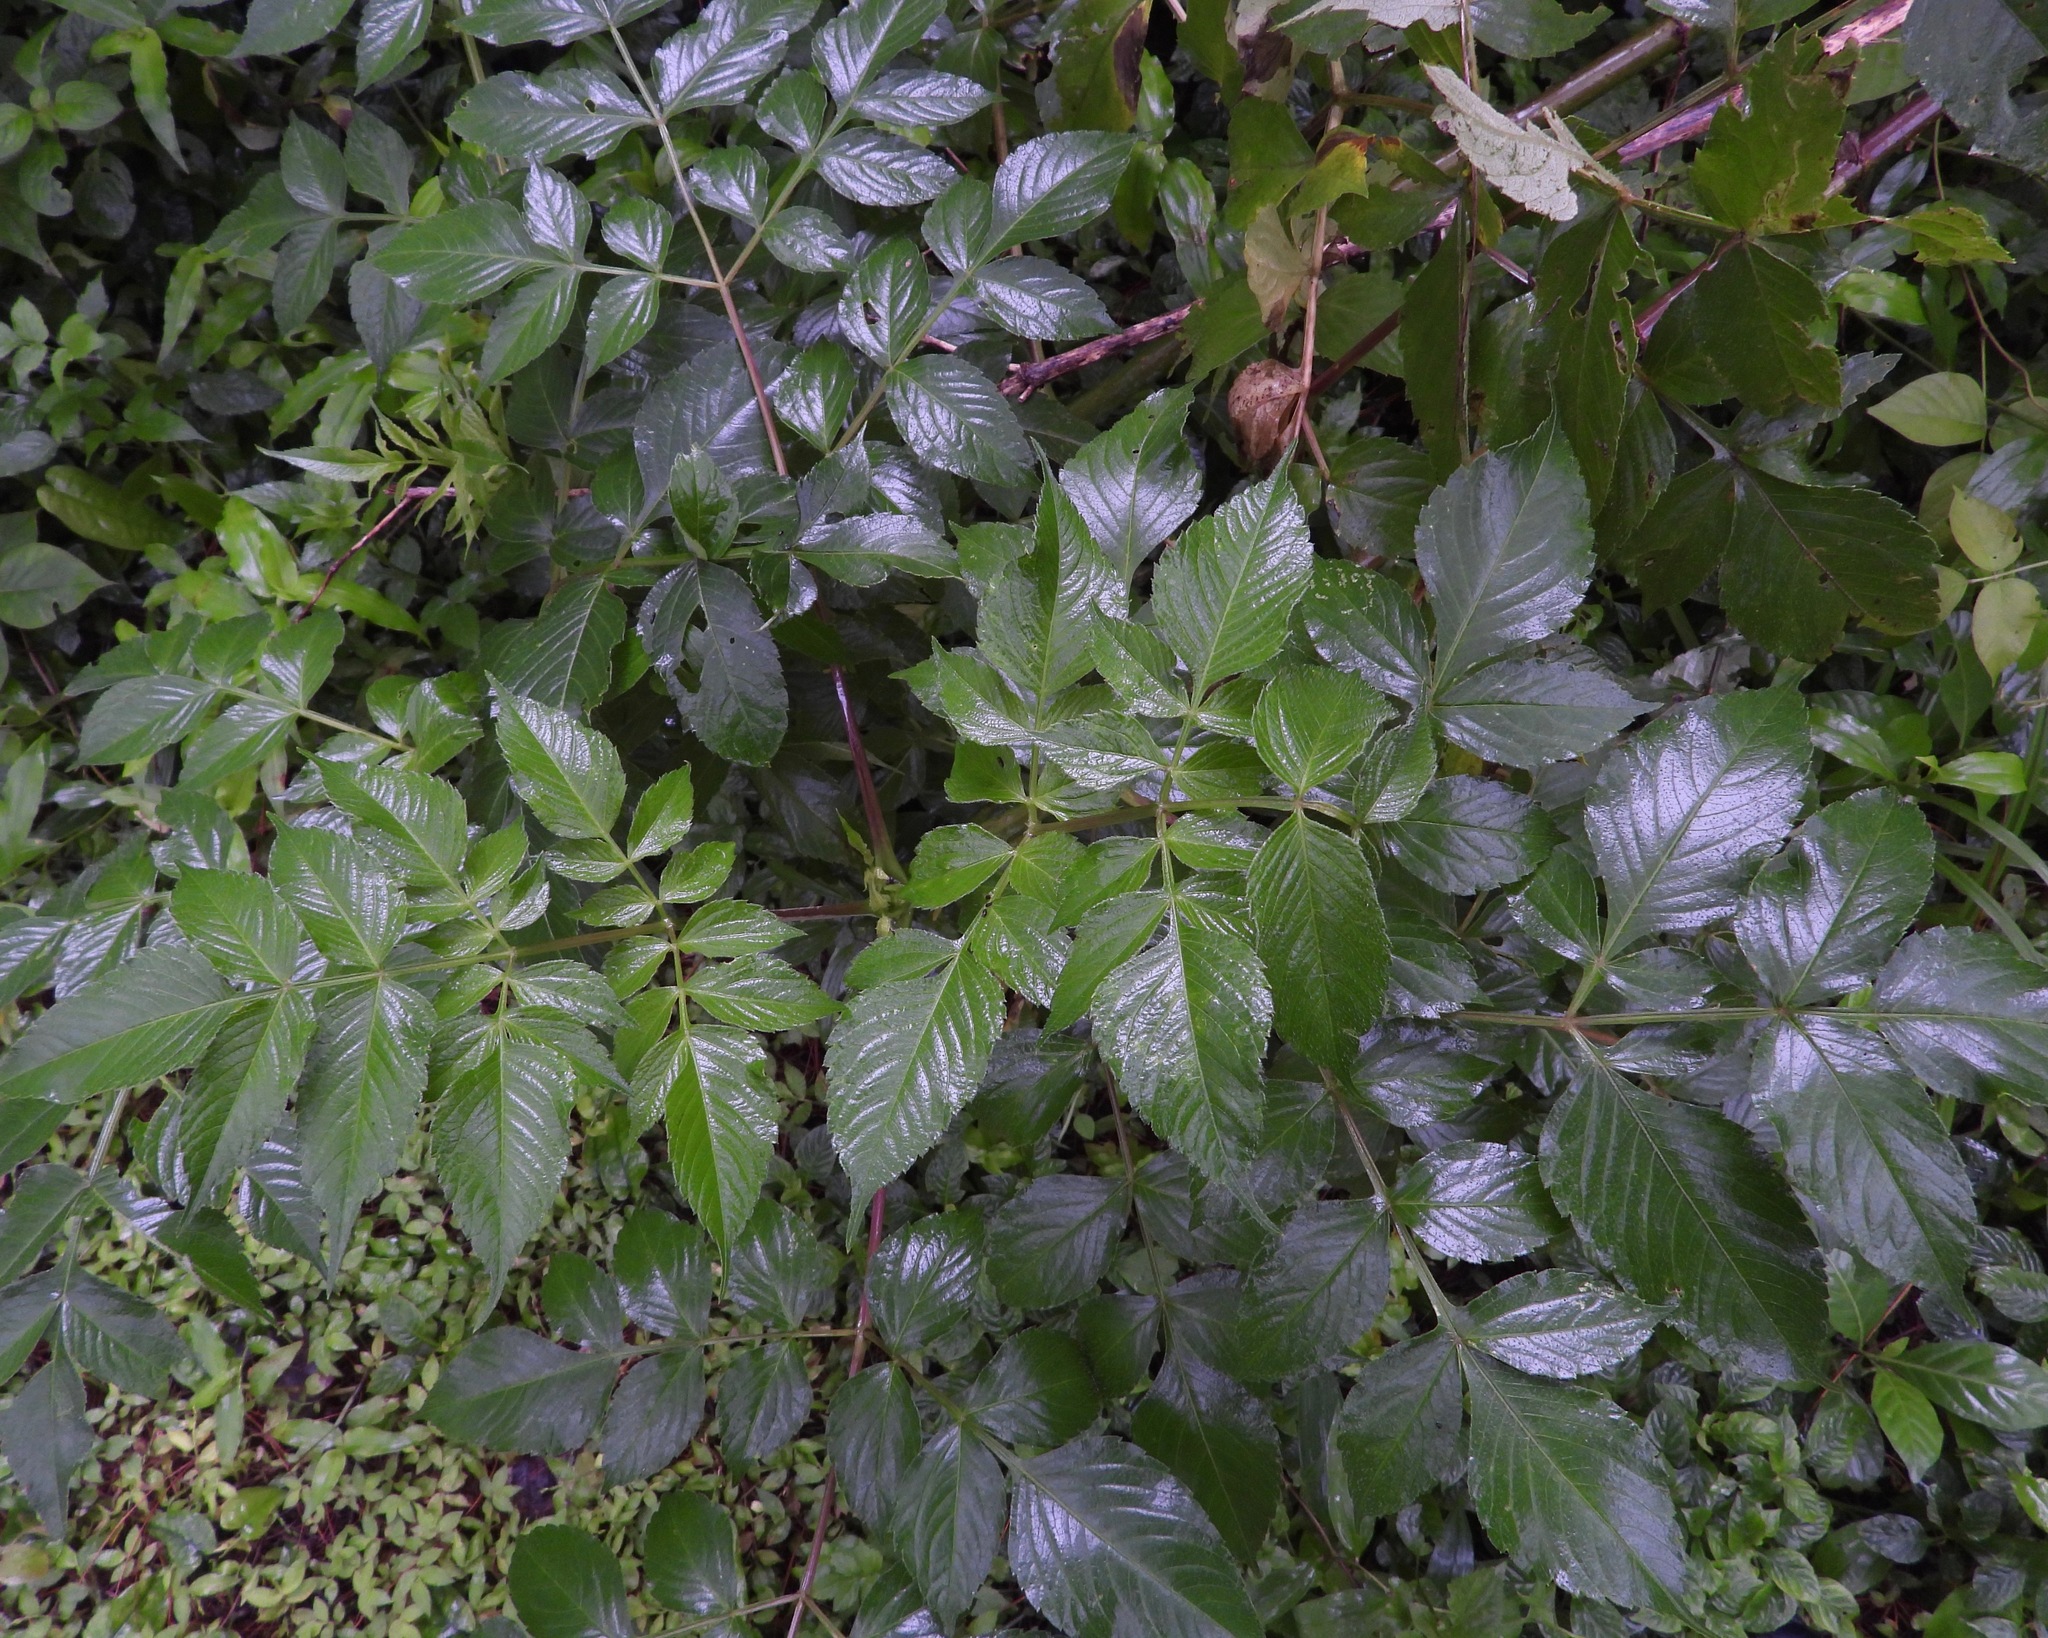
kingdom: Plantae
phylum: Tracheophyta
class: Magnoliopsida
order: Asterales
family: Asteraceae
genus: Dahlia
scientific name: Dahlia imperialis
